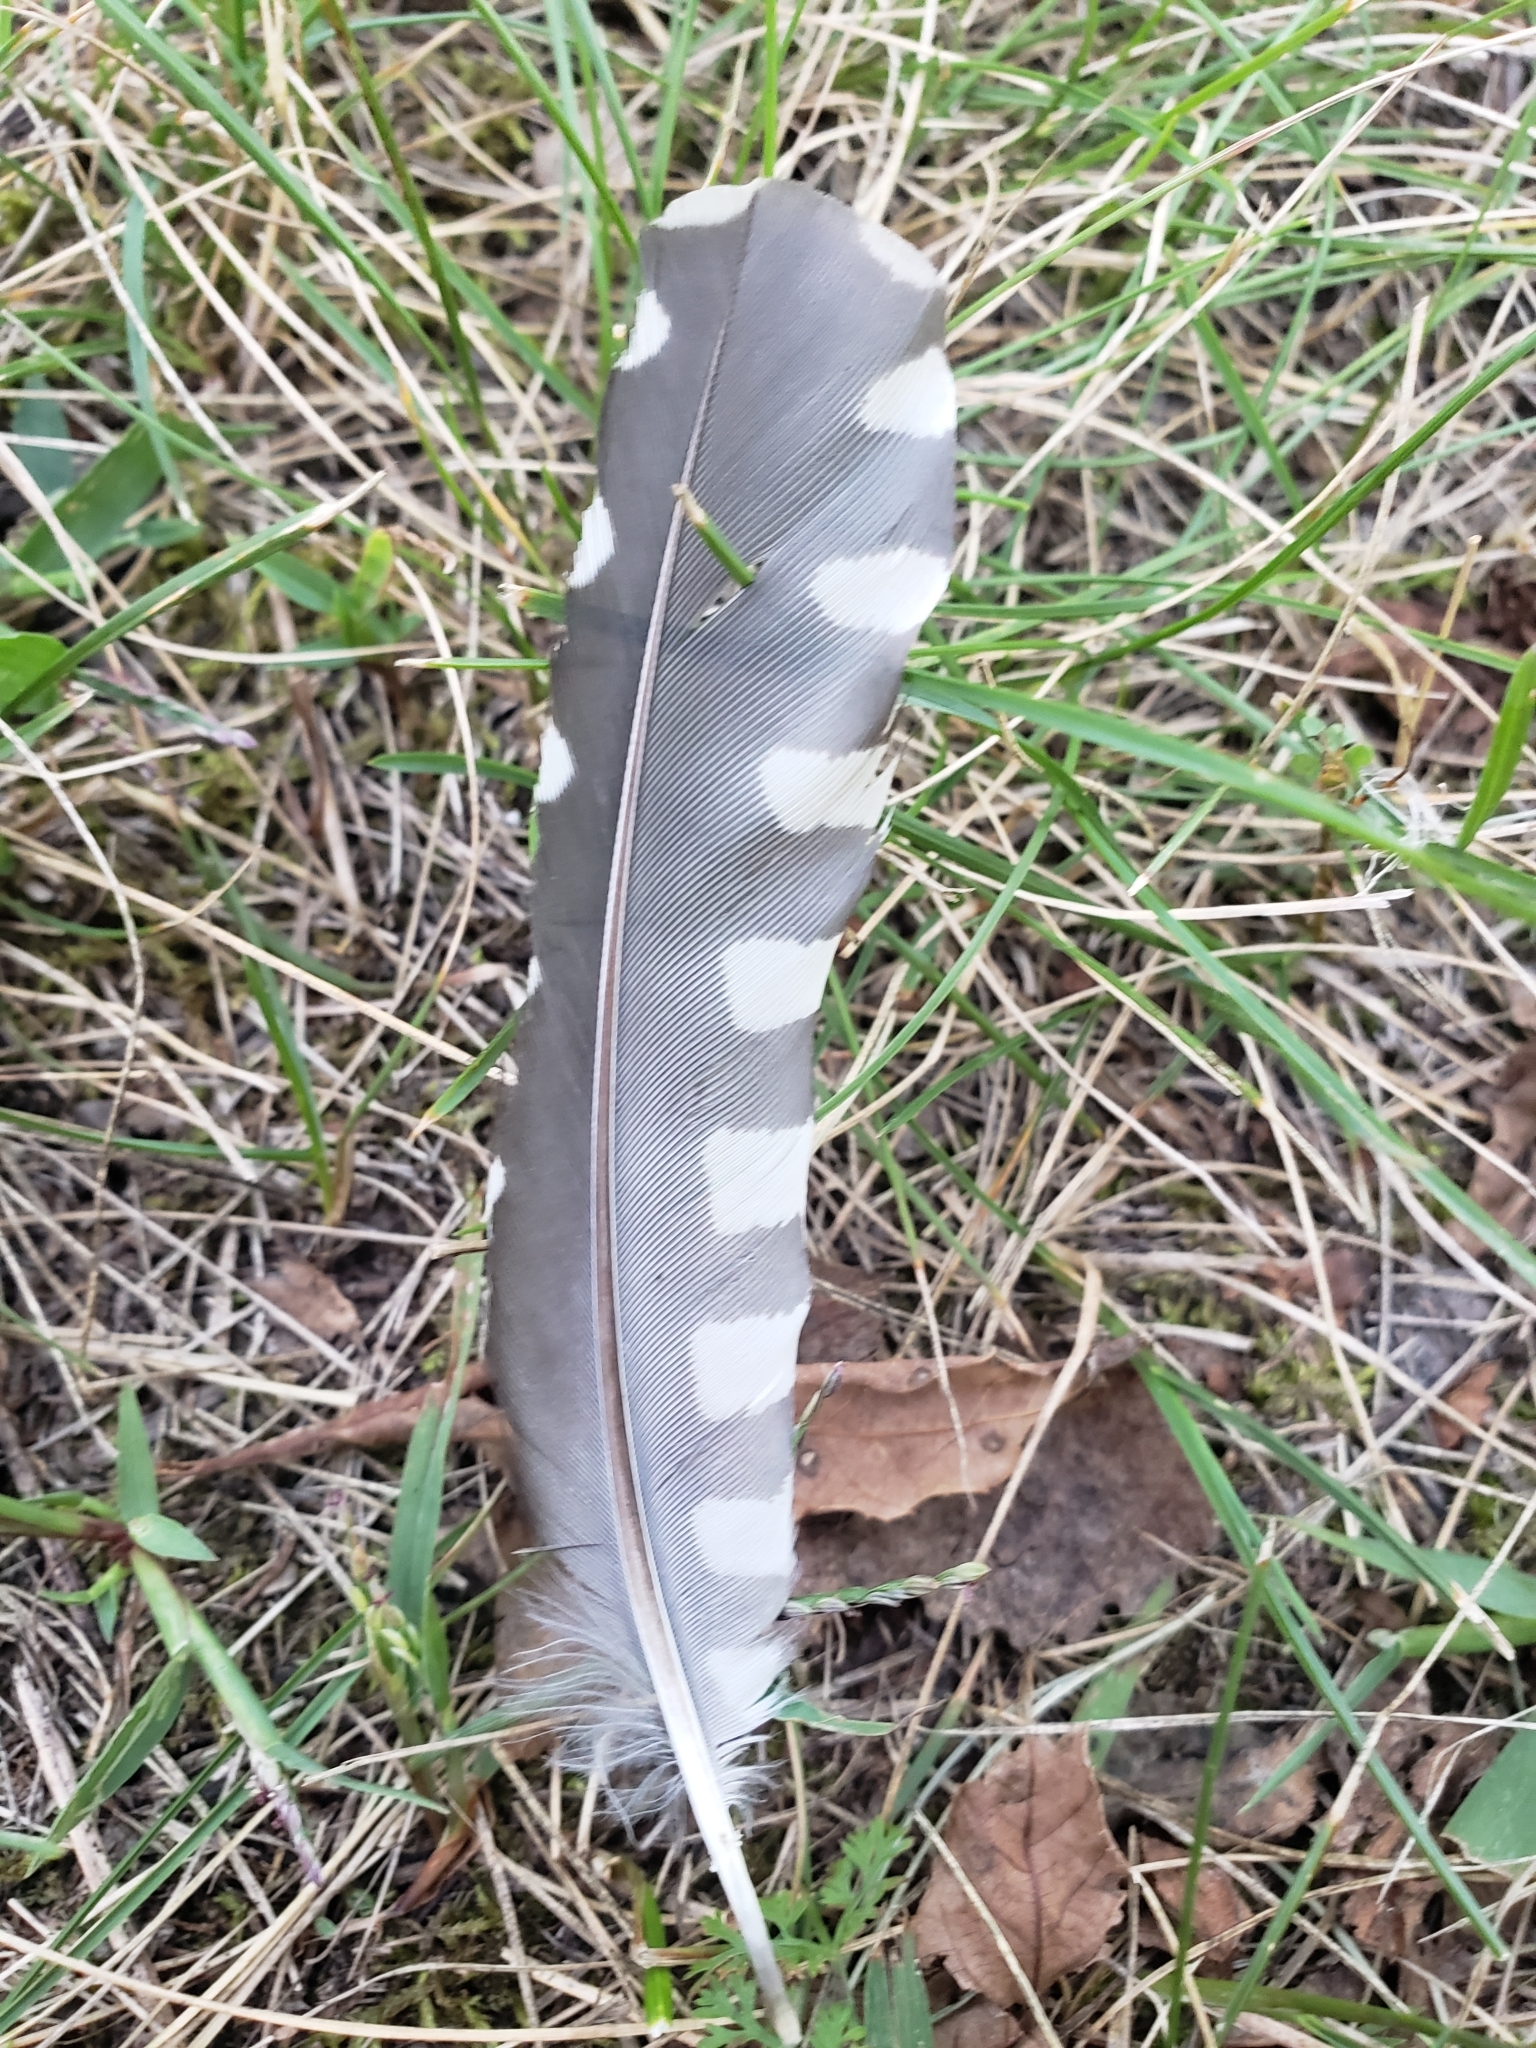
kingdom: Animalia
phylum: Chordata
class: Aves
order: Piciformes
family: Picidae
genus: Melanerpes
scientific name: Melanerpes carolinus
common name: Red-bellied woodpecker
